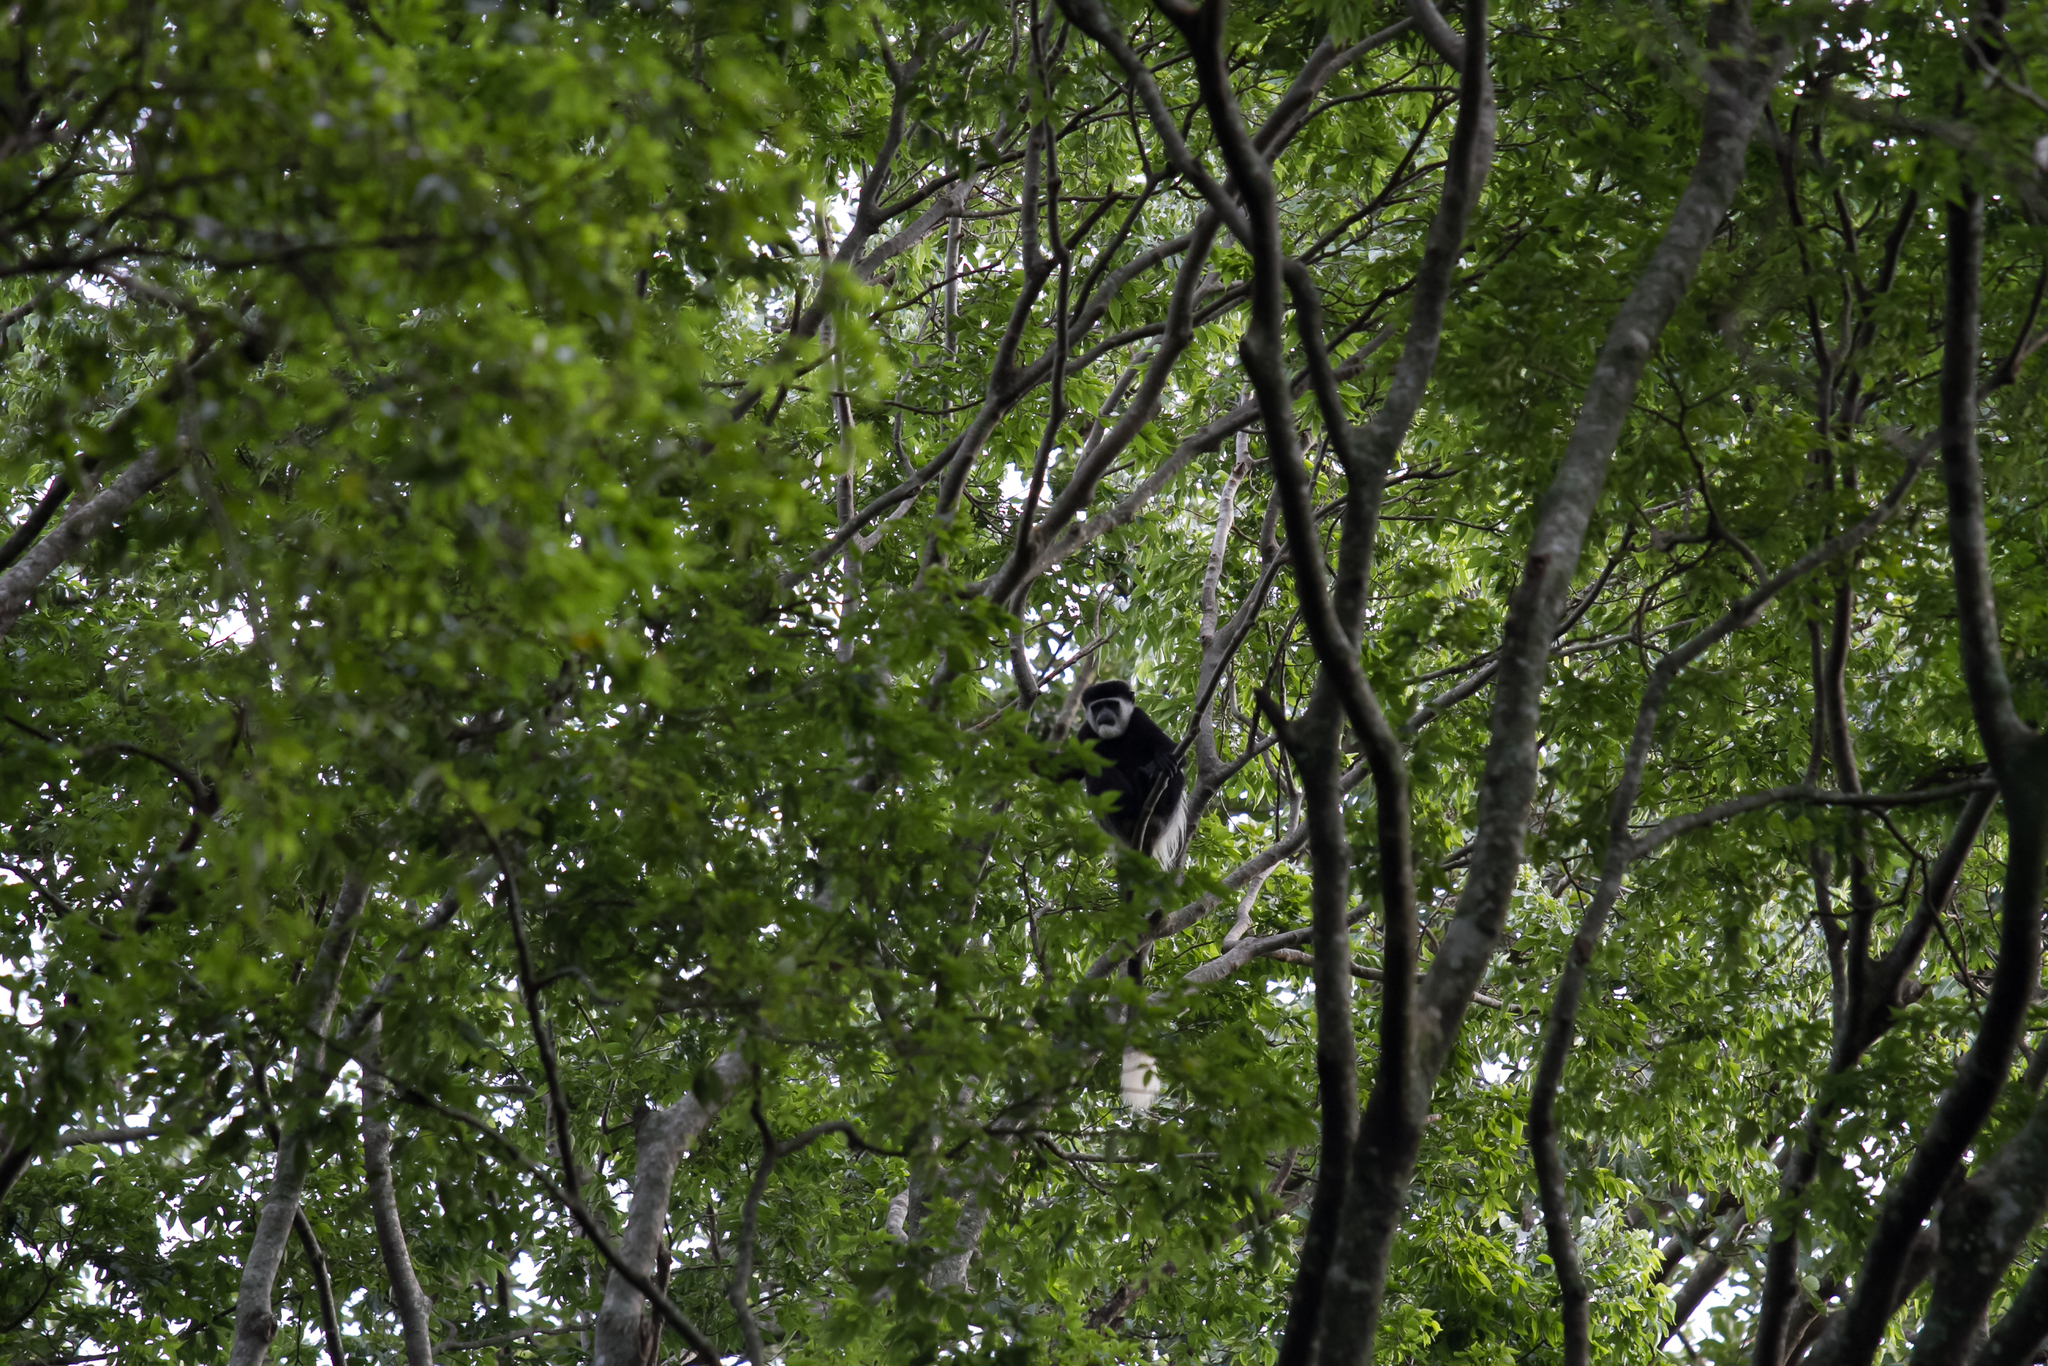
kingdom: Animalia
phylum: Chordata
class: Mammalia
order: Primates
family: Cercopithecidae
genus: Colobus
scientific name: Colobus guereza
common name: Mantled guereza
